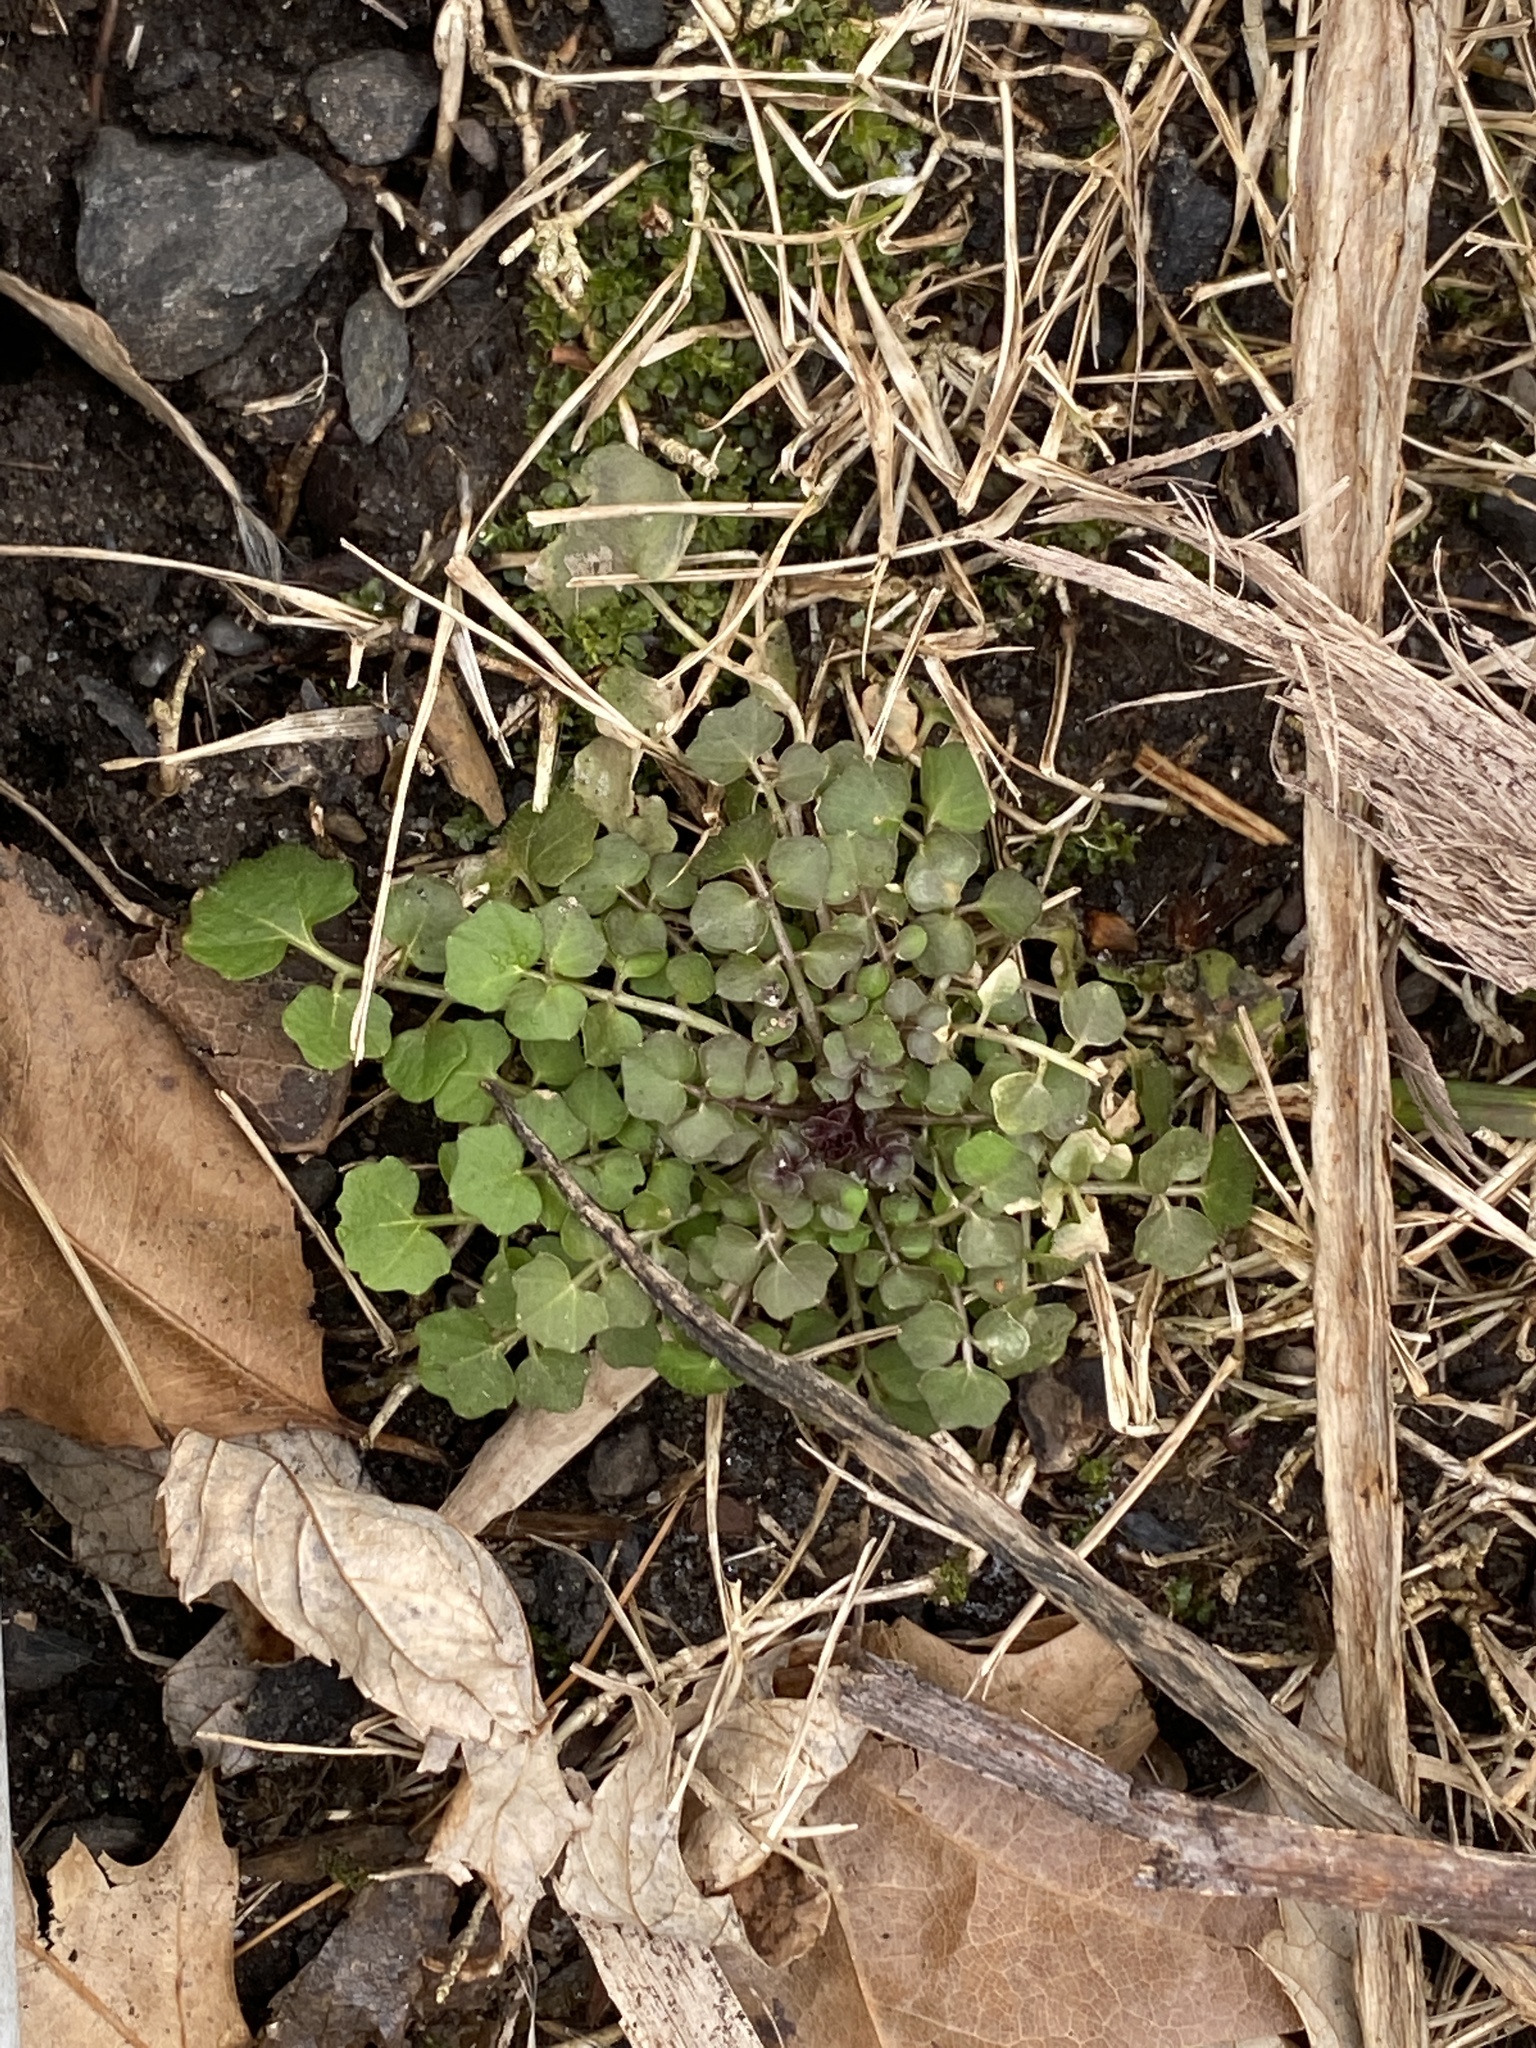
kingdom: Plantae
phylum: Tracheophyta
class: Magnoliopsida
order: Brassicales
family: Brassicaceae
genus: Cardamine
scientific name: Cardamine hirsuta
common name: Hairy bittercress
